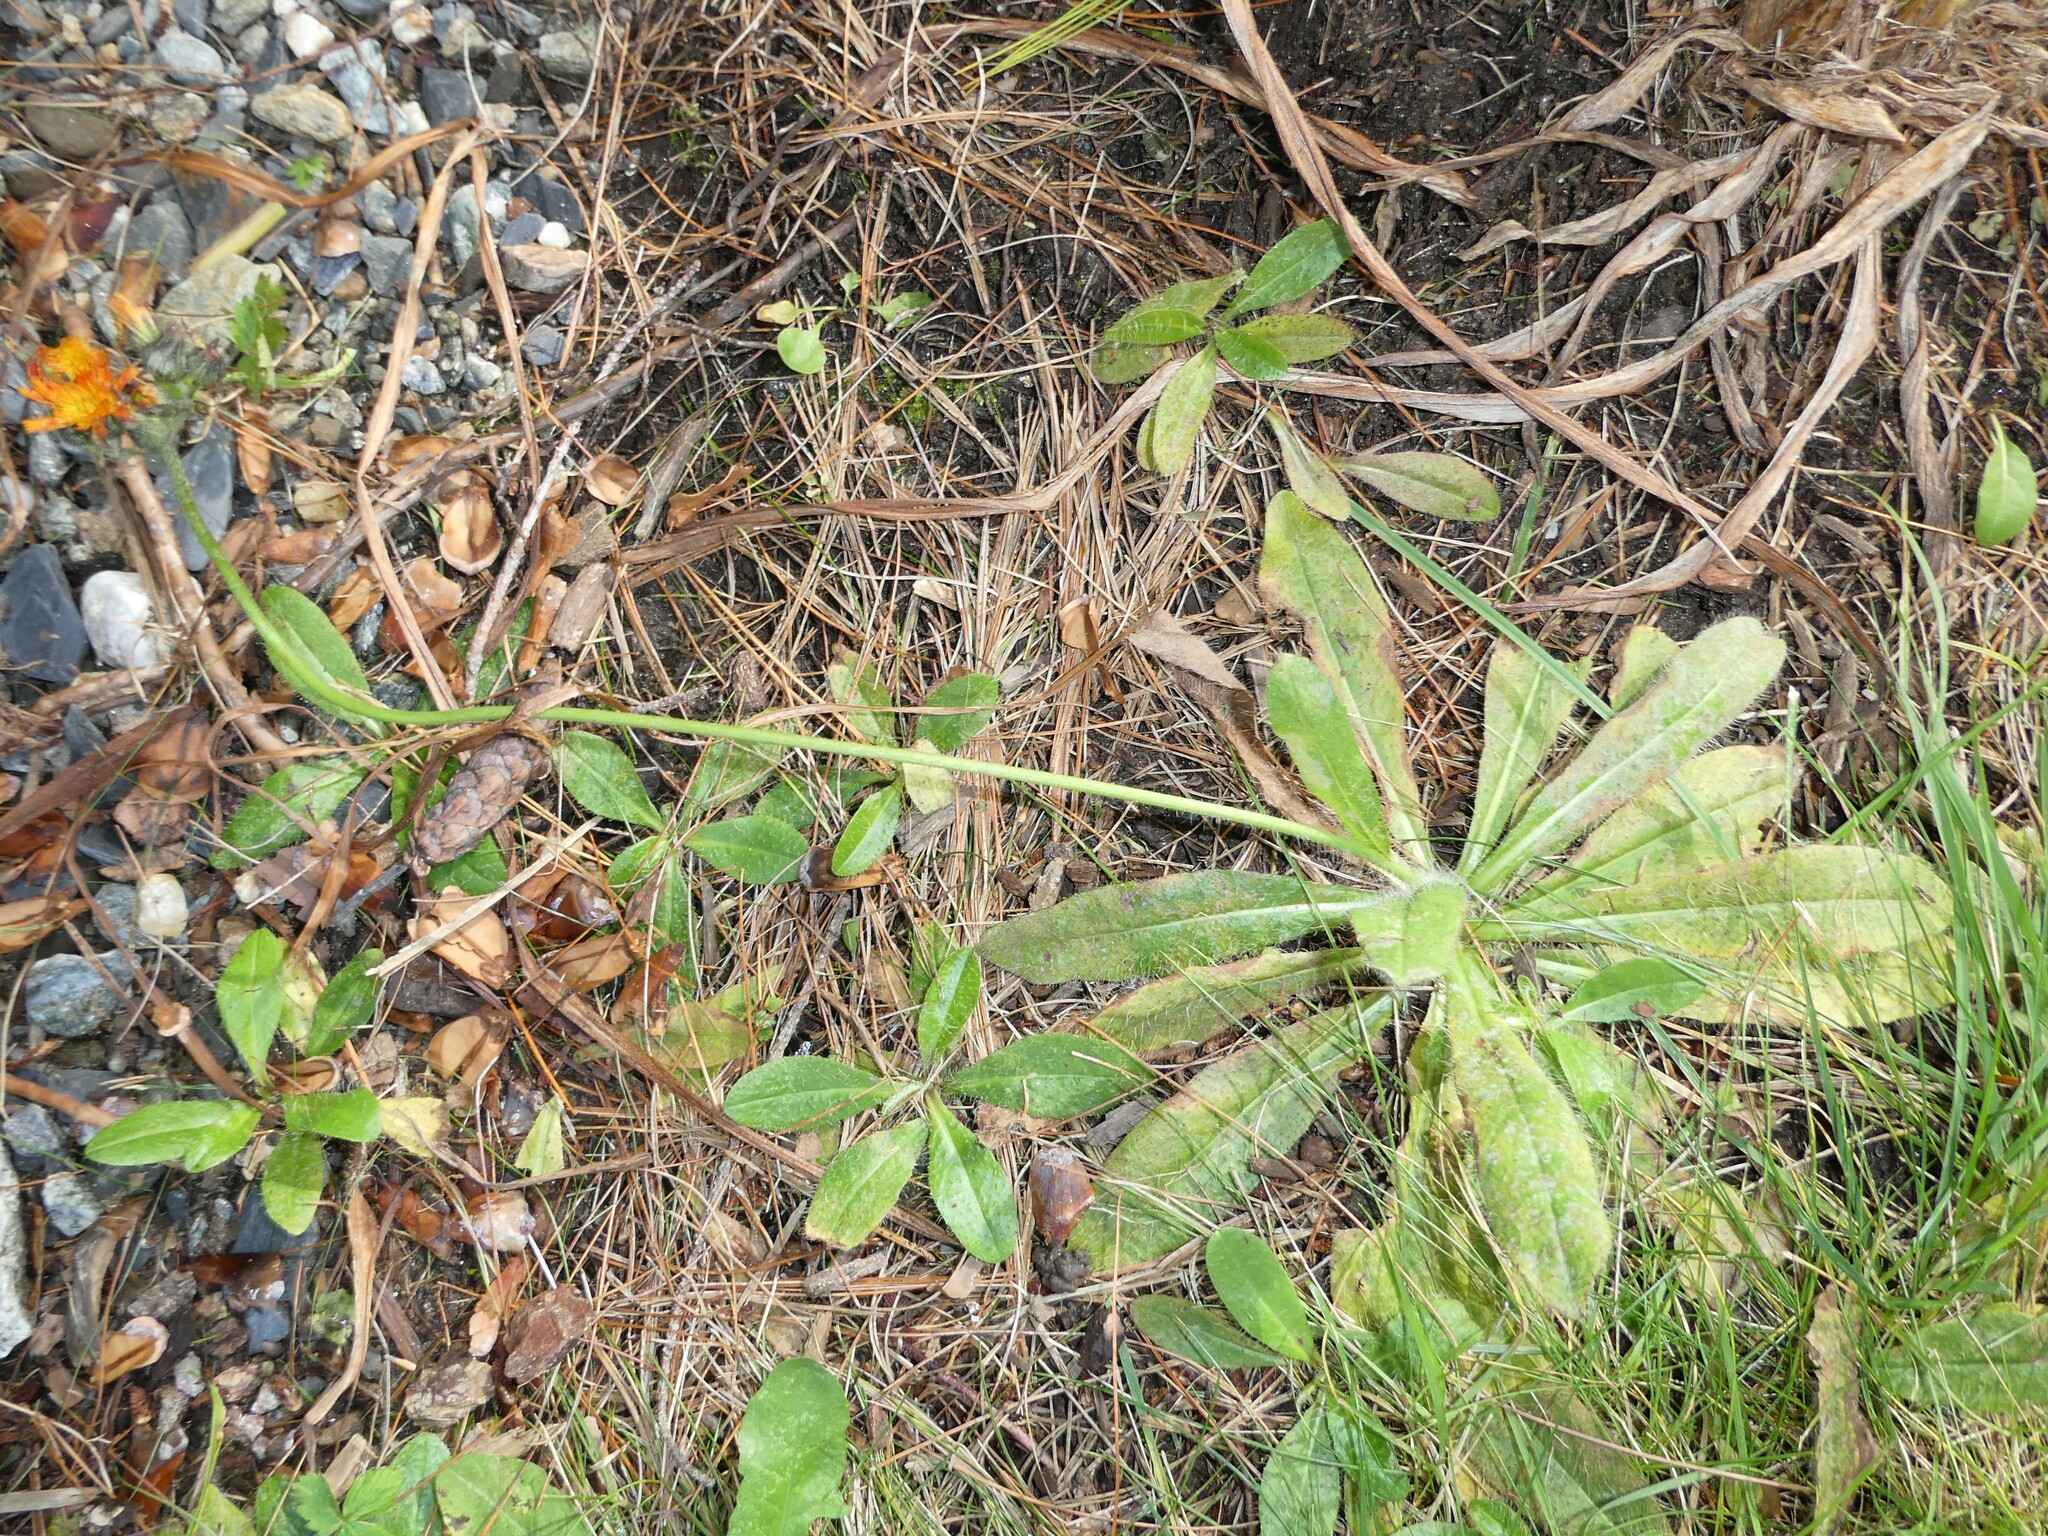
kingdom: Plantae
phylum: Tracheophyta
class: Magnoliopsida
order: Asterales
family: Asteraceae
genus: Pilosella
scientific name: Pilosella aurantiaca
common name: Fox-and-cubs
